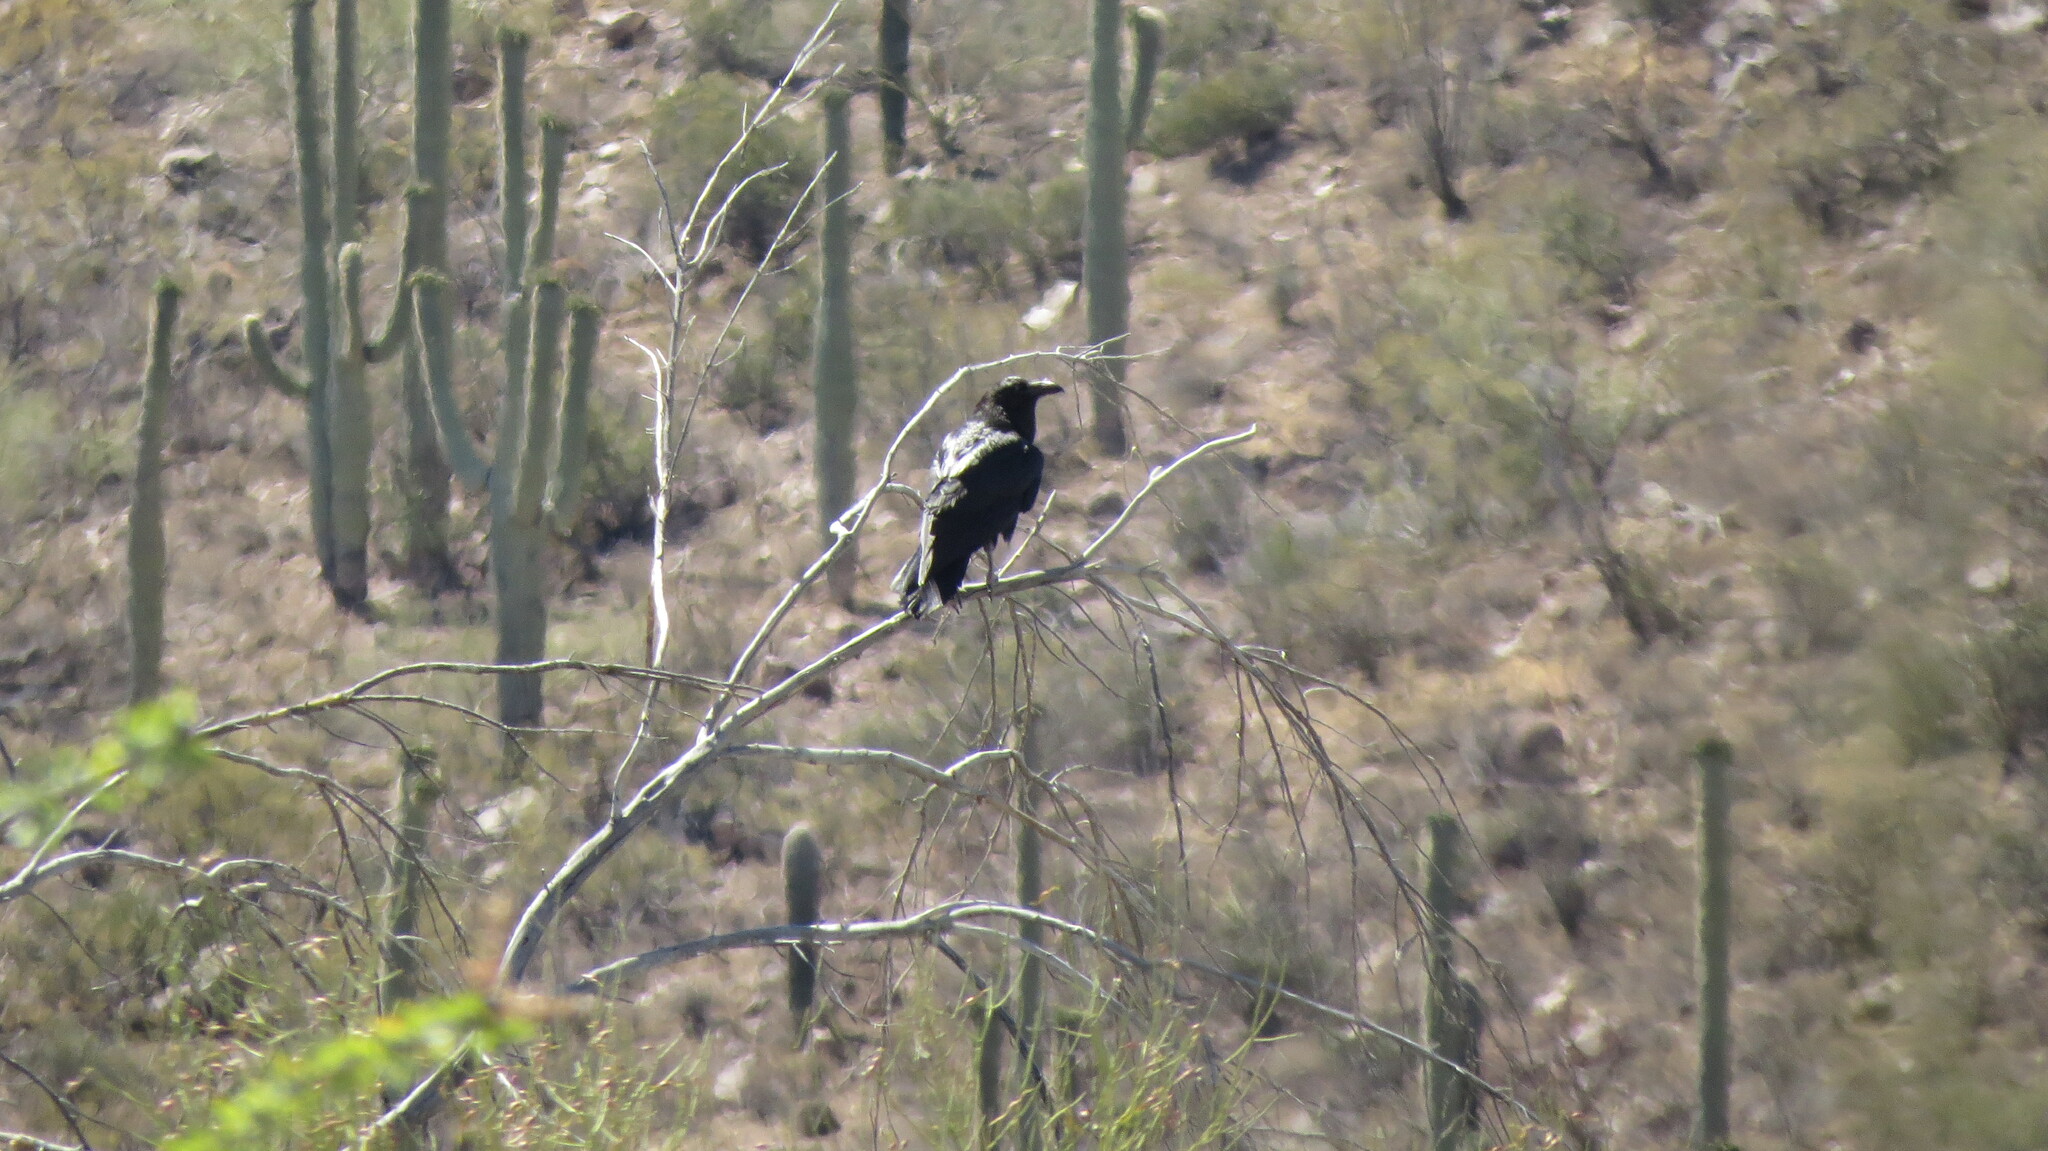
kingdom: Animalia
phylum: Chordata
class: Aves
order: Passeriformes
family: Corvidae
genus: Corvus
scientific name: Corvus corax
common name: Common raven
